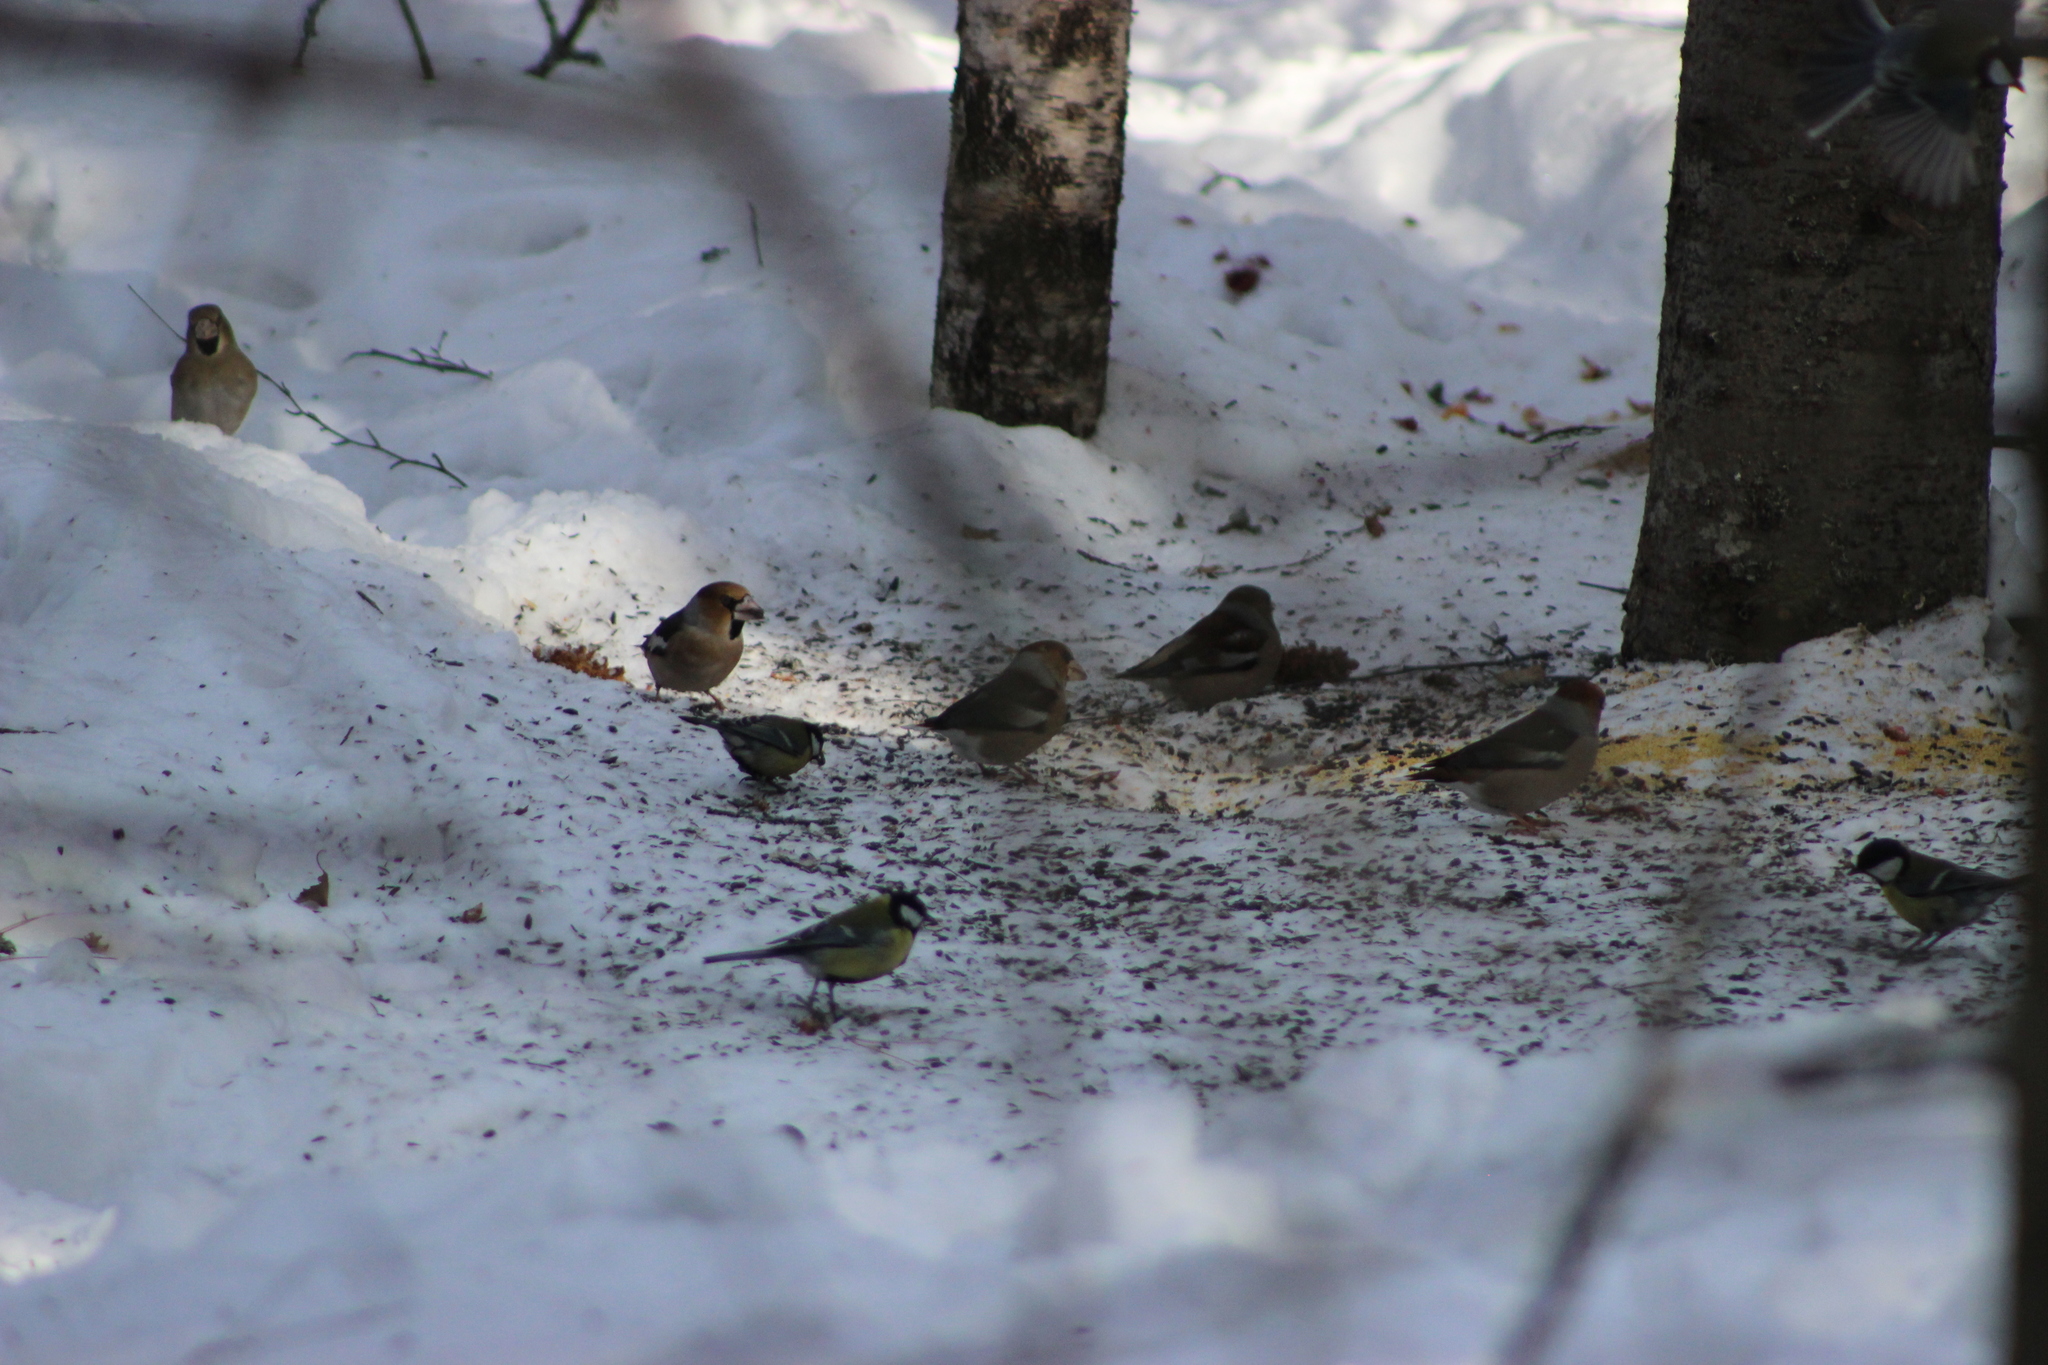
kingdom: Animalia
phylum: Chordata
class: Aves
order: Passeriformes
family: Fringillidae
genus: Coccothraustes
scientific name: Coccothraustes coccothraustes
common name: Hawfinch
